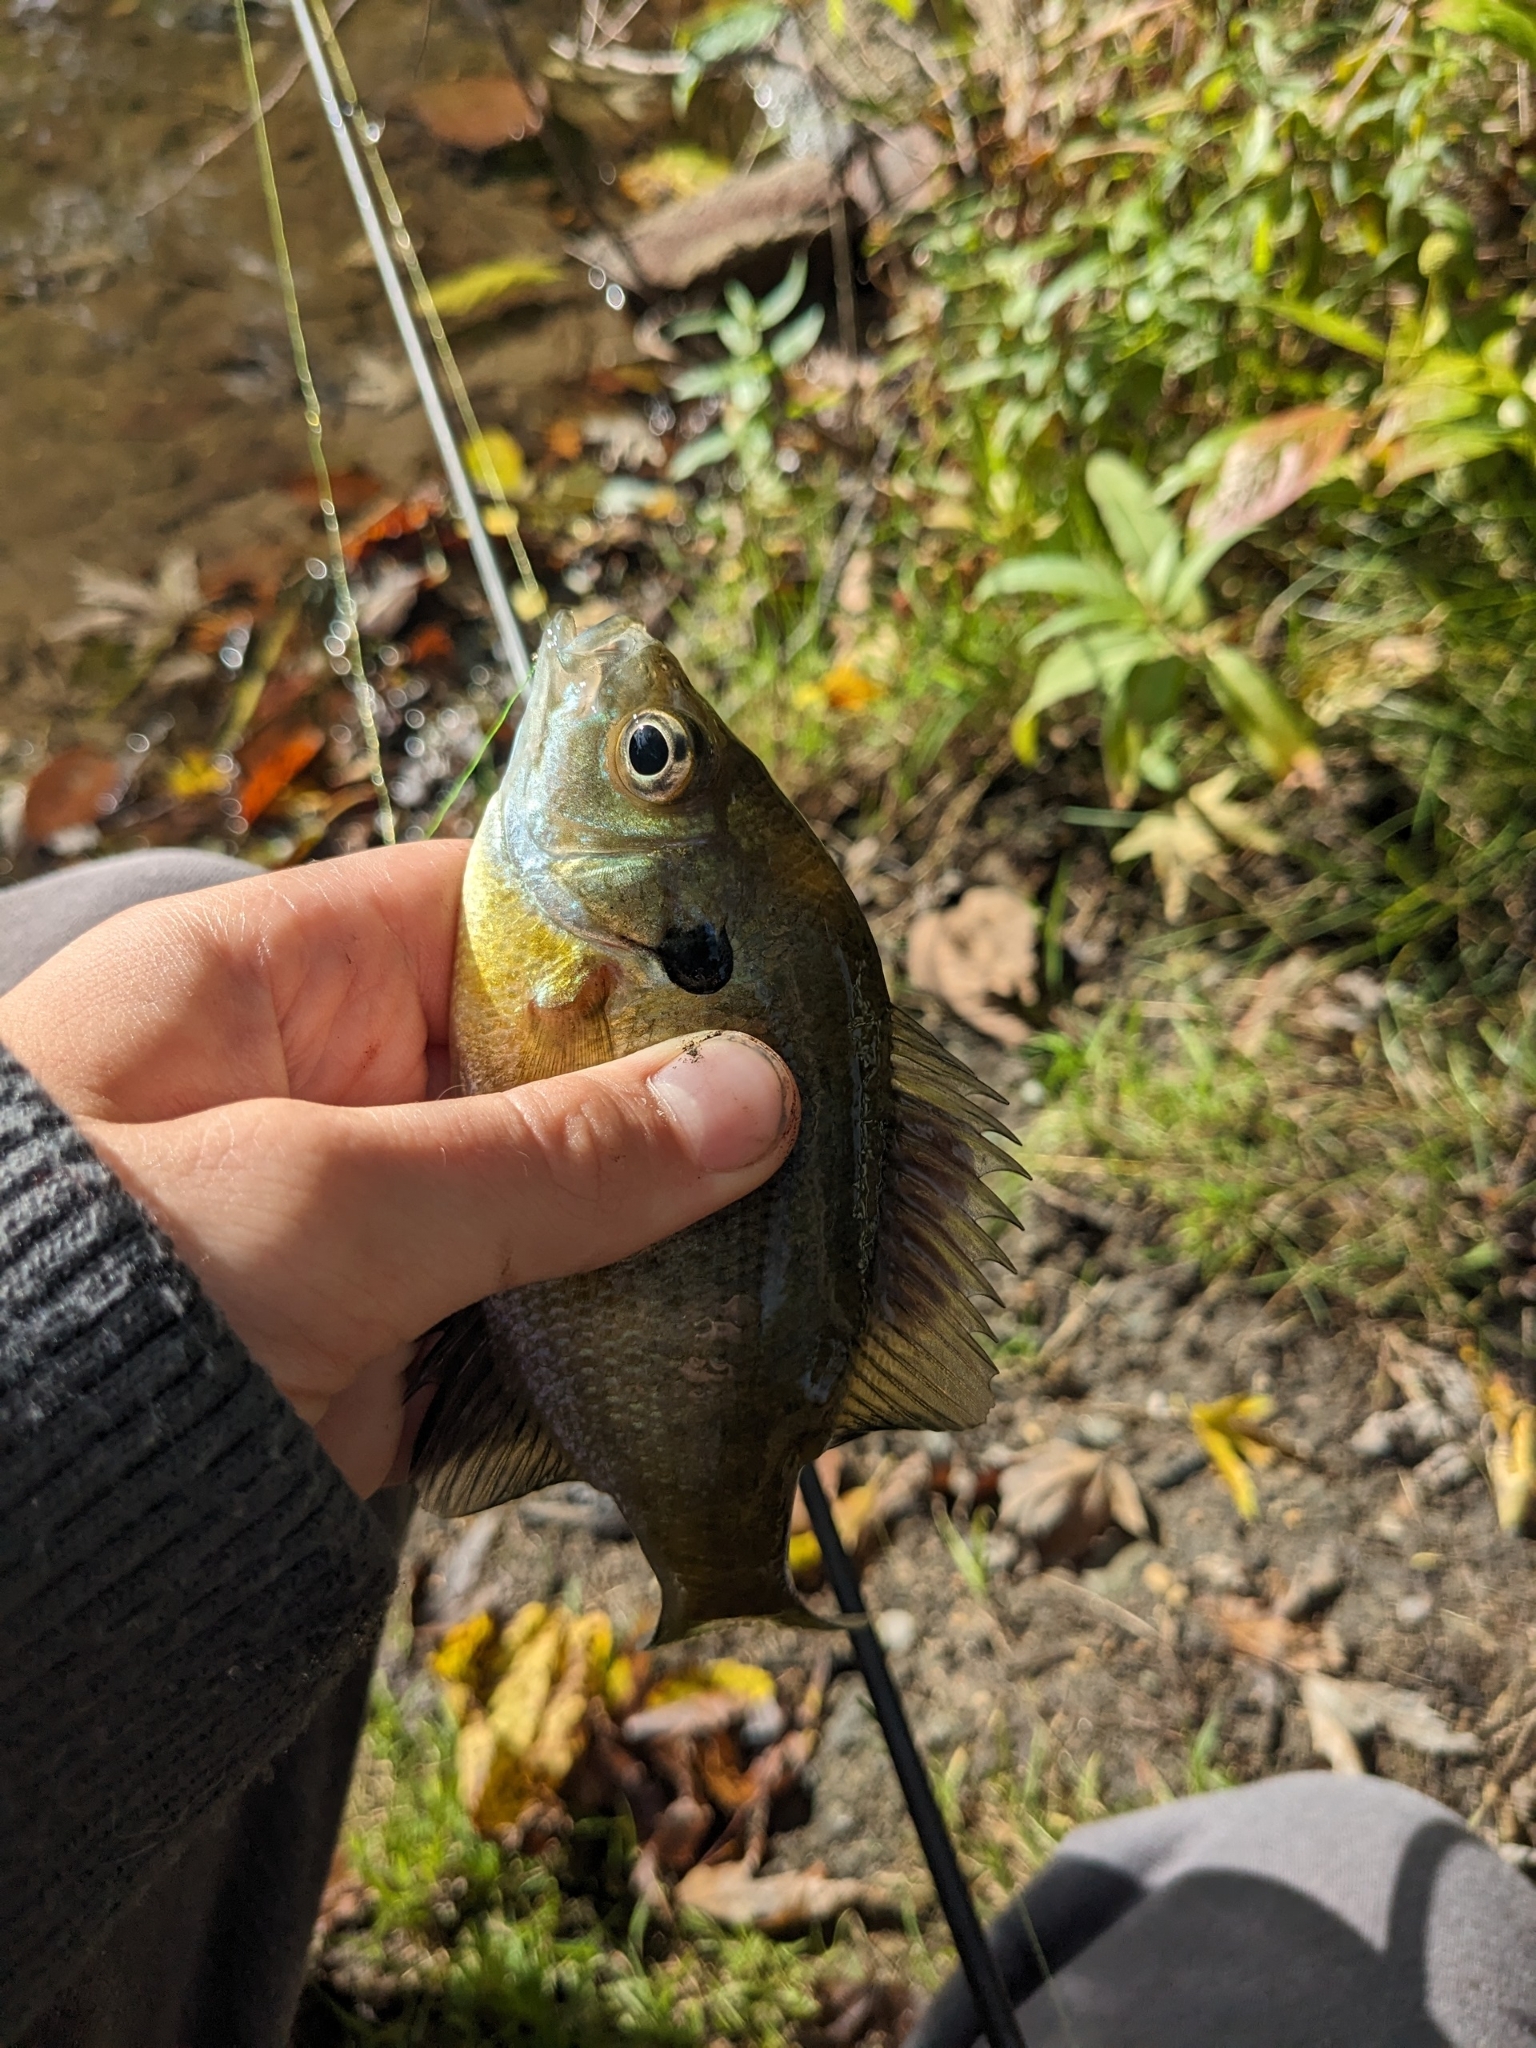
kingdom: Animalia
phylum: Chordata
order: Perciformes
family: Centrarchidae
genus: Lepomis
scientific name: Lepomis macrochirus
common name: Bluegill
